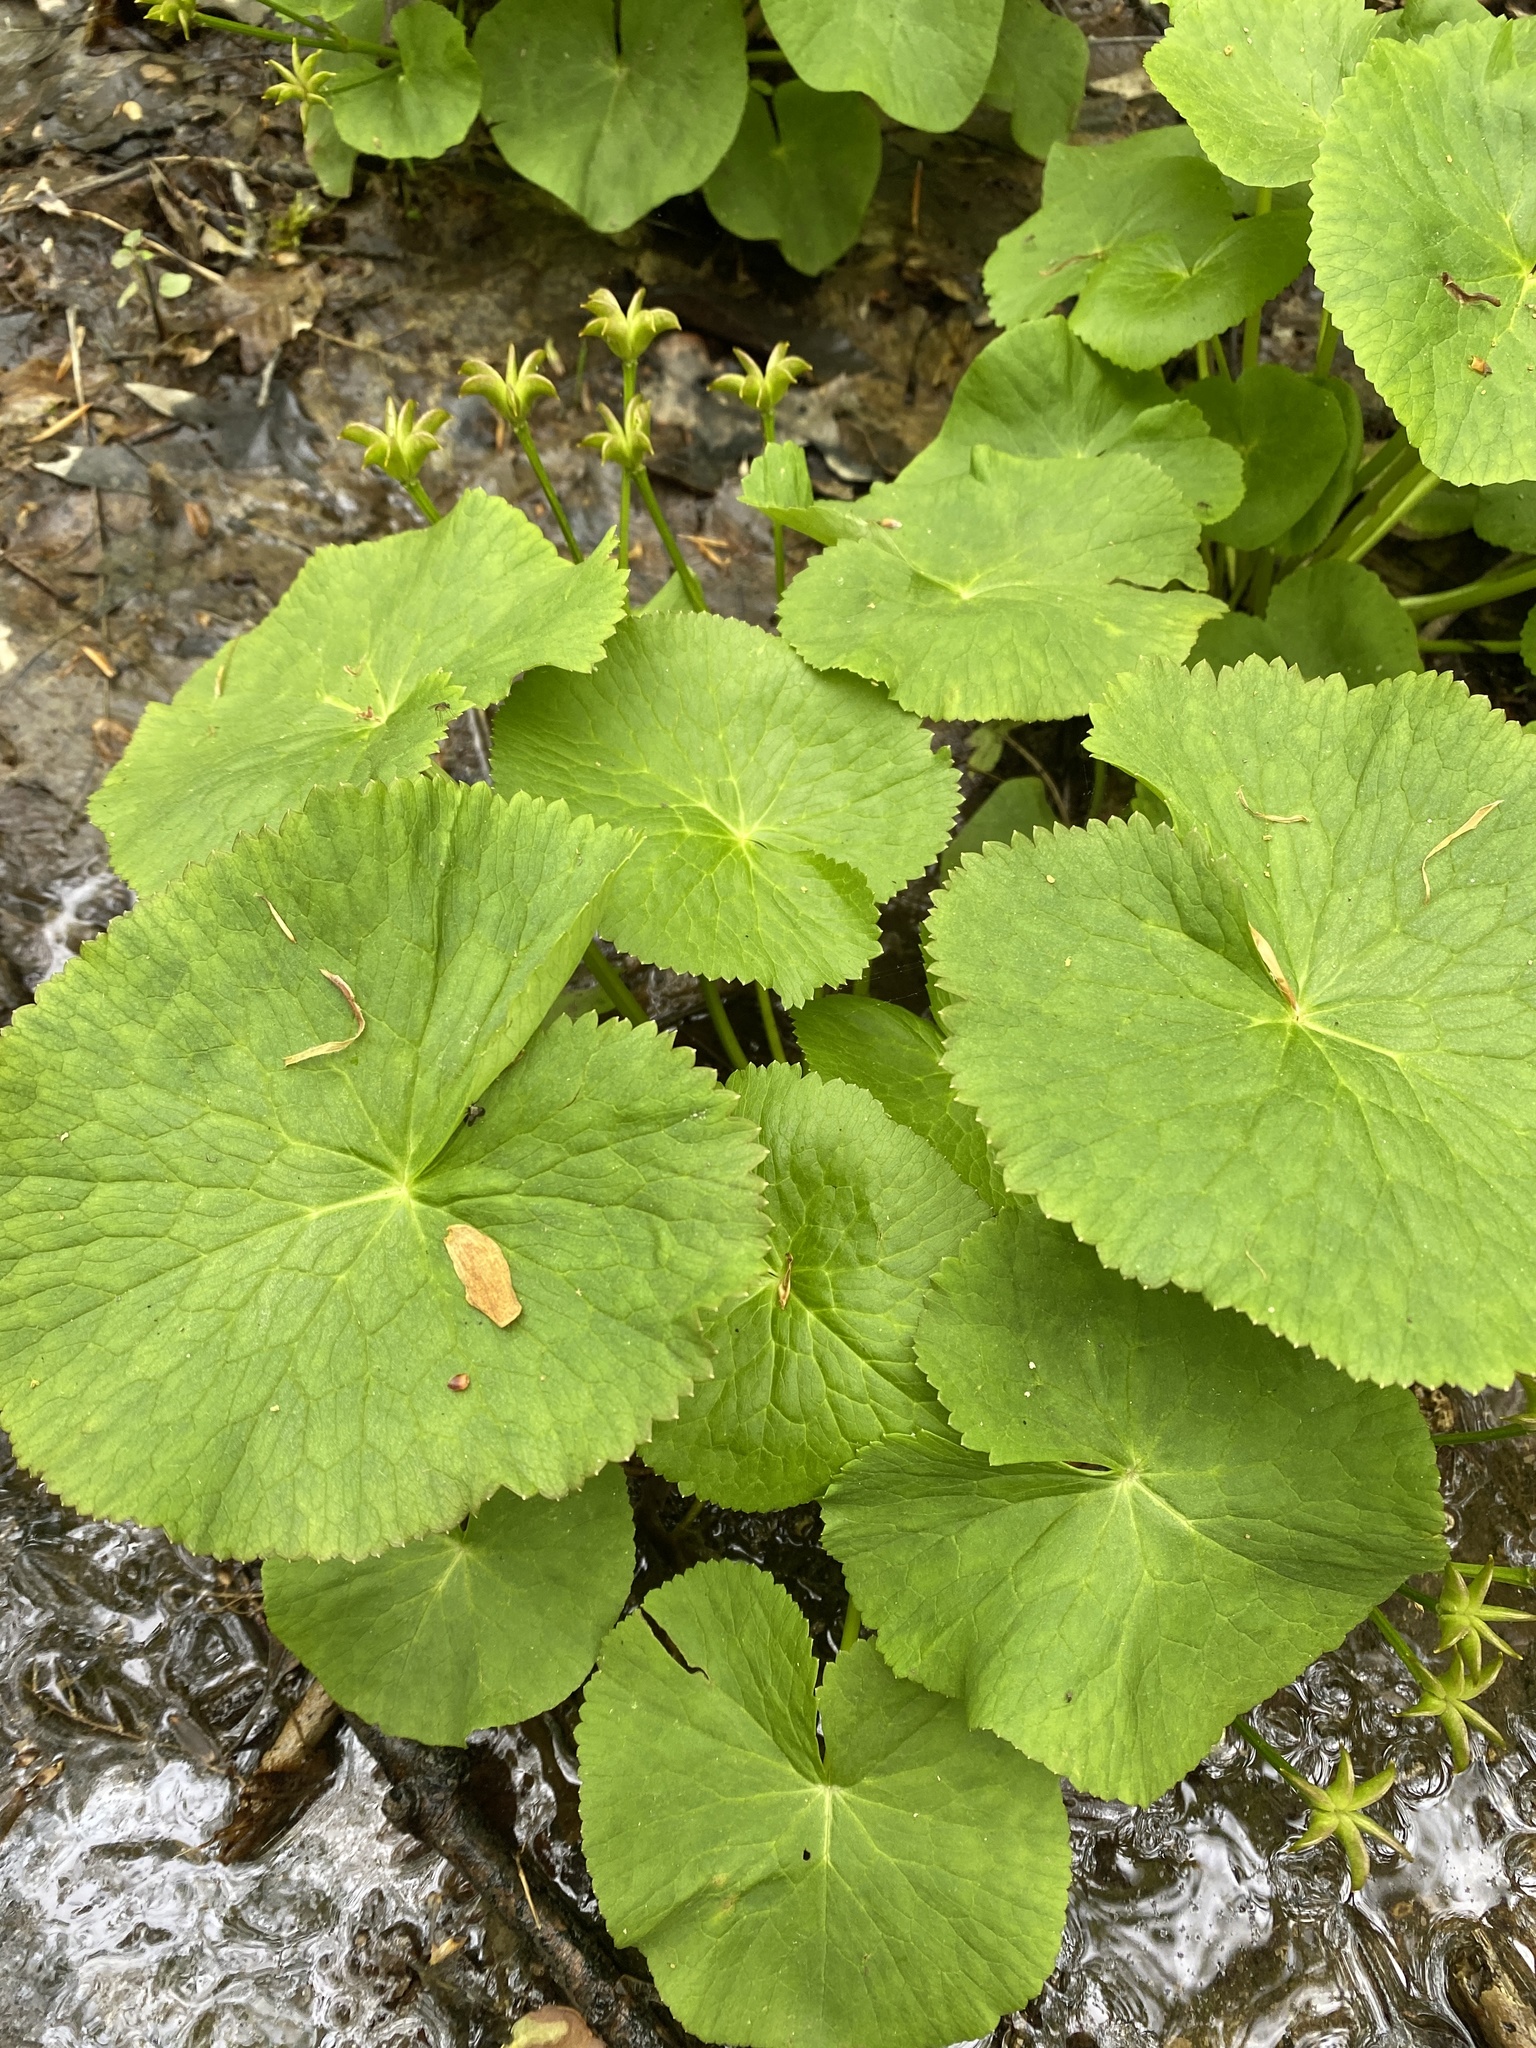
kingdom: Plantae
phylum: Tracheophyta
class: Magnoliopsida
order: Ranunculales
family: Ranunculaceae
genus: Caltha
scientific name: Caltha palustris
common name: Marsh marigold
